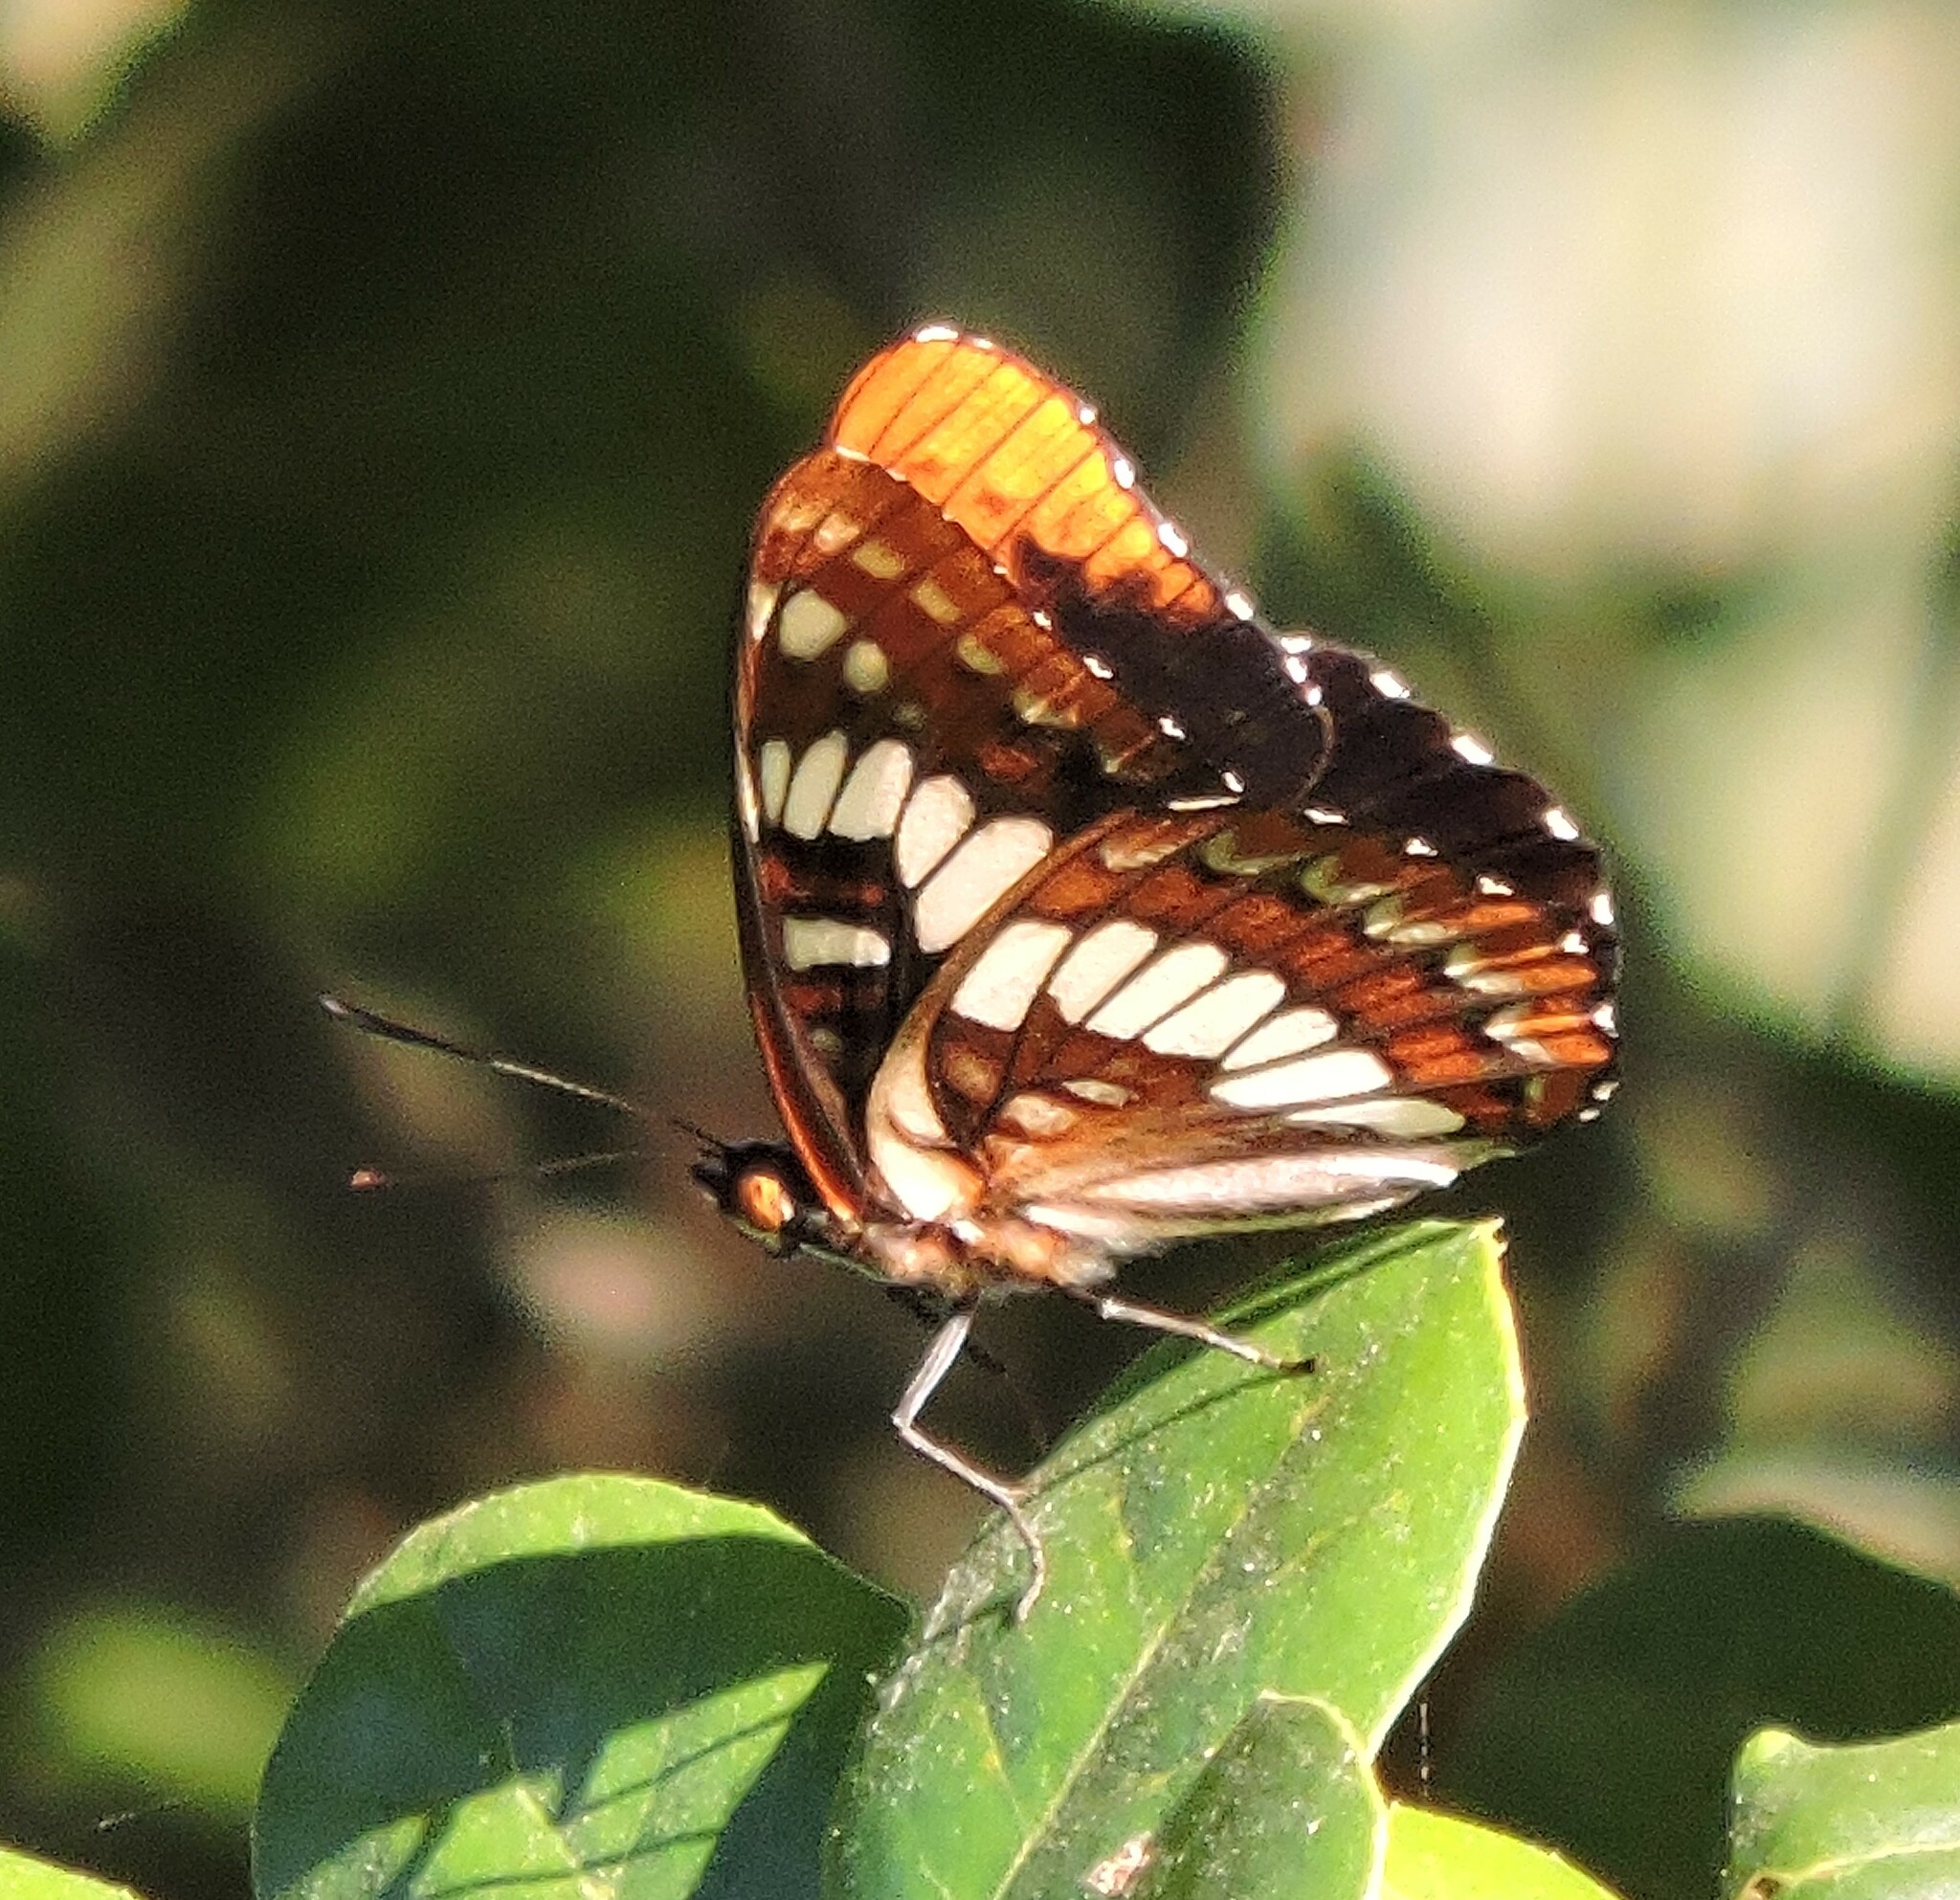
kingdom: Animalia
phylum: Arthropoda
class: Insecta
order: Lepidoptera
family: Nymphalidae
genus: Limenitis
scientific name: Limenitis lorquini
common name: Lorquin's admiral
